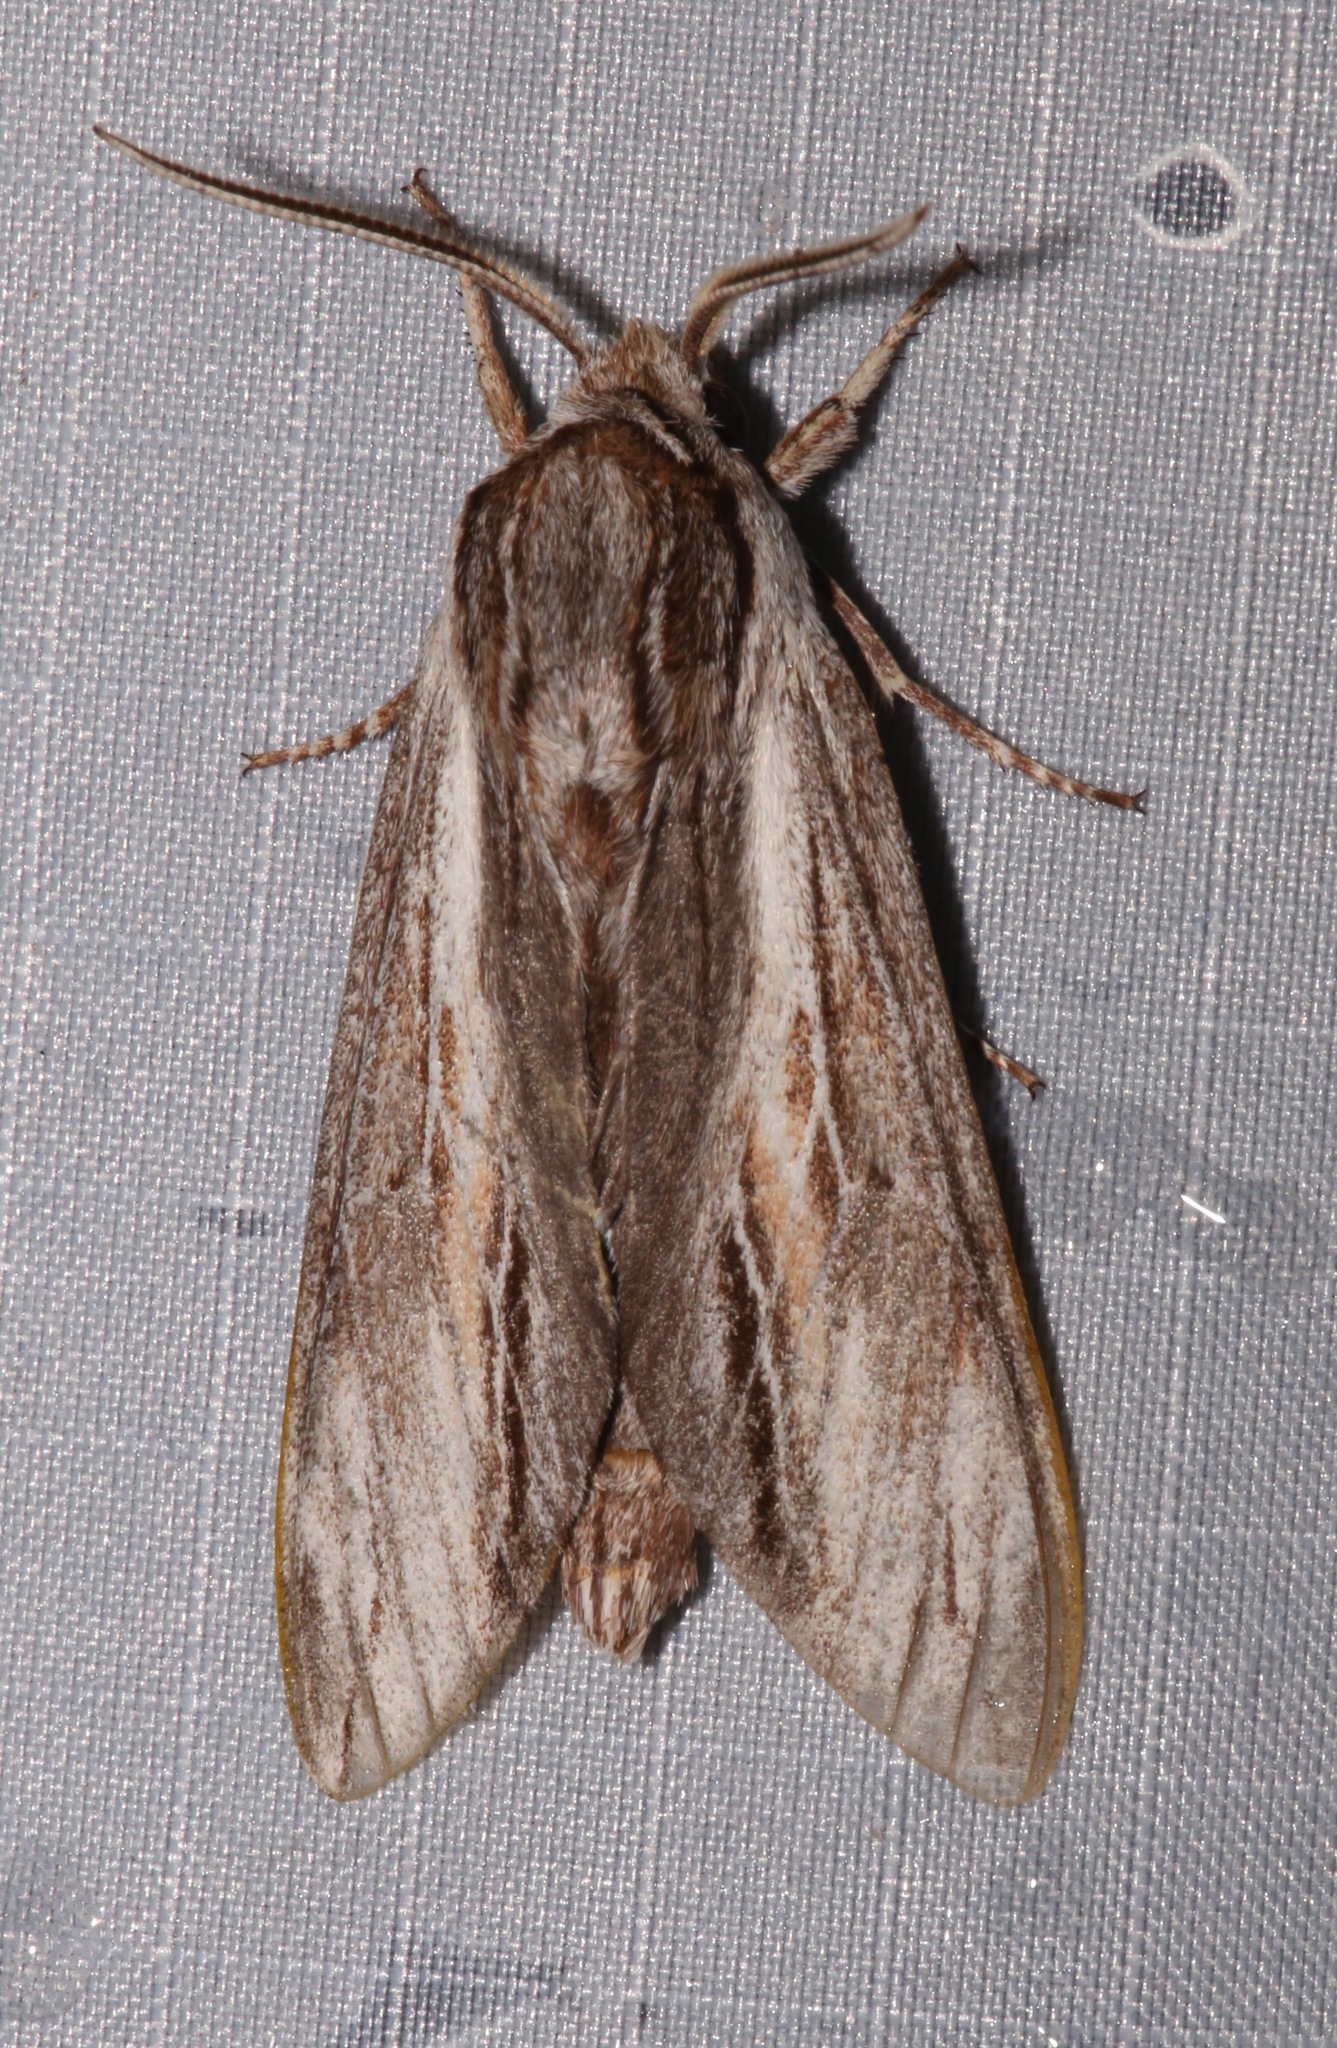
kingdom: Animalia
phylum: Arthropoda
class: Insecta
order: Lepidoptera
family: Sphingidae
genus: Isoparce
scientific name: Isoparce cupressi
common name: Cypress sphinx
